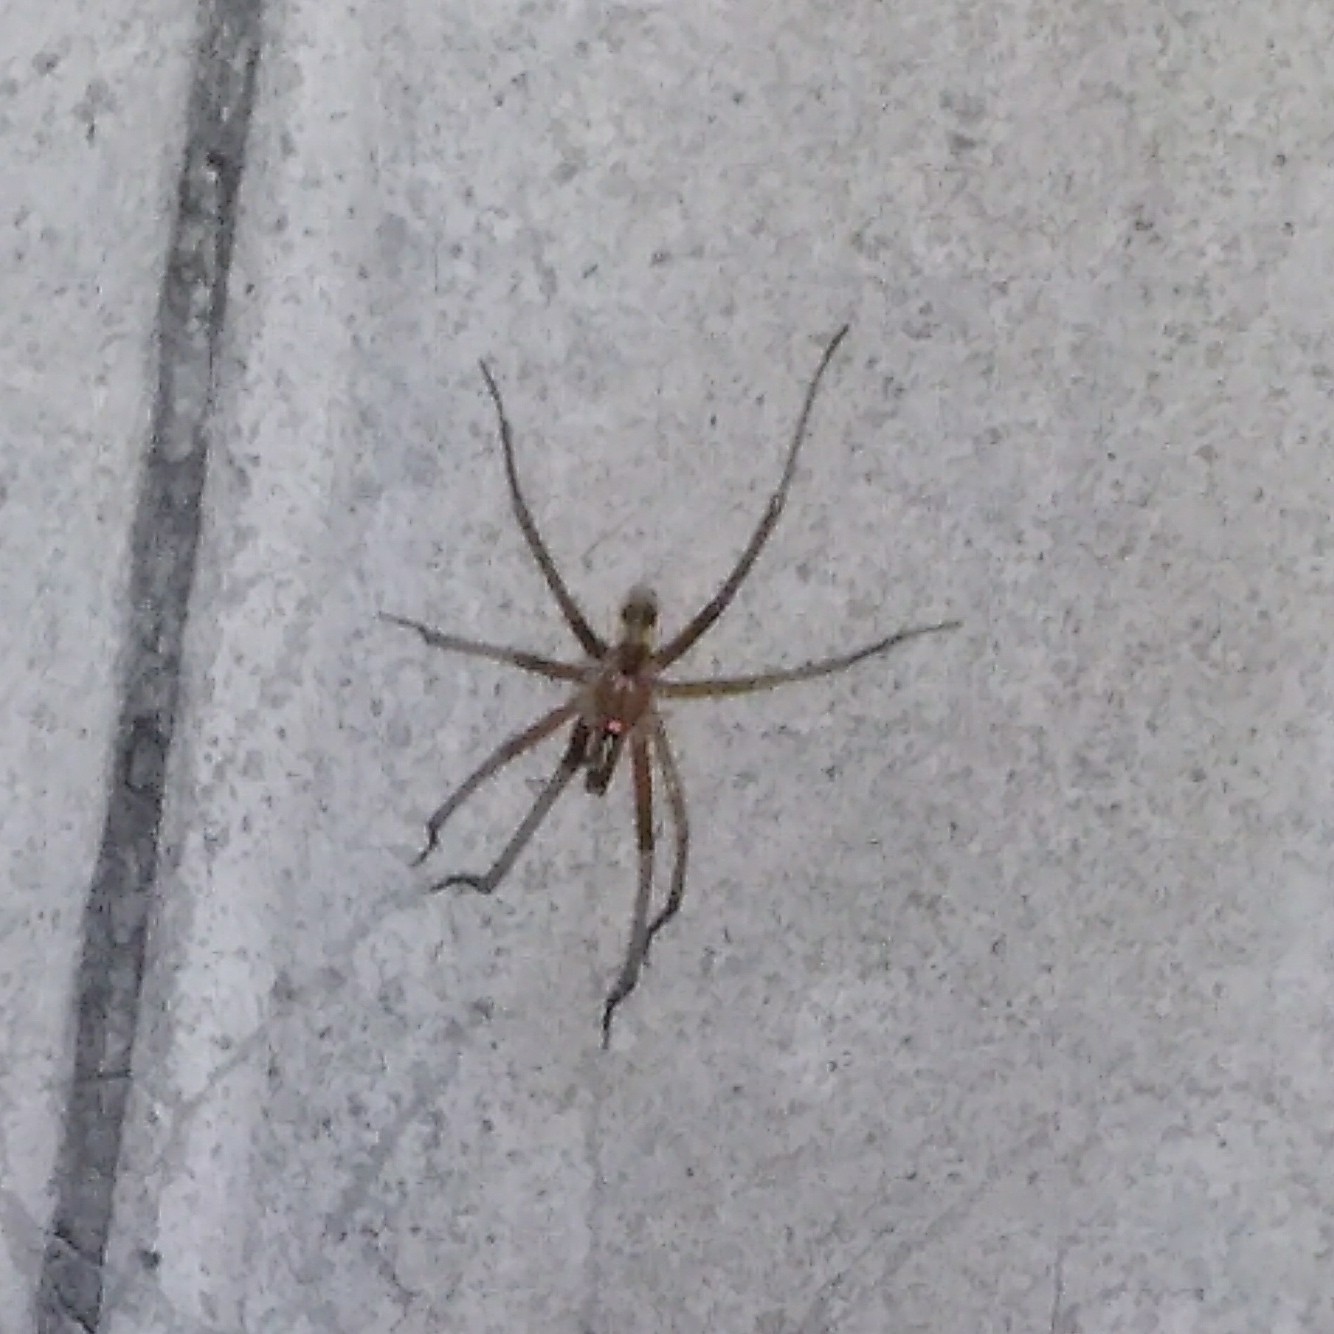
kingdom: Animalia
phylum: Arthropoda
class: Arachnida
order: Araneae
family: Filistatidae
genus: Kukulcania
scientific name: Kukulcania hibernalis
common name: Crevice weaver
